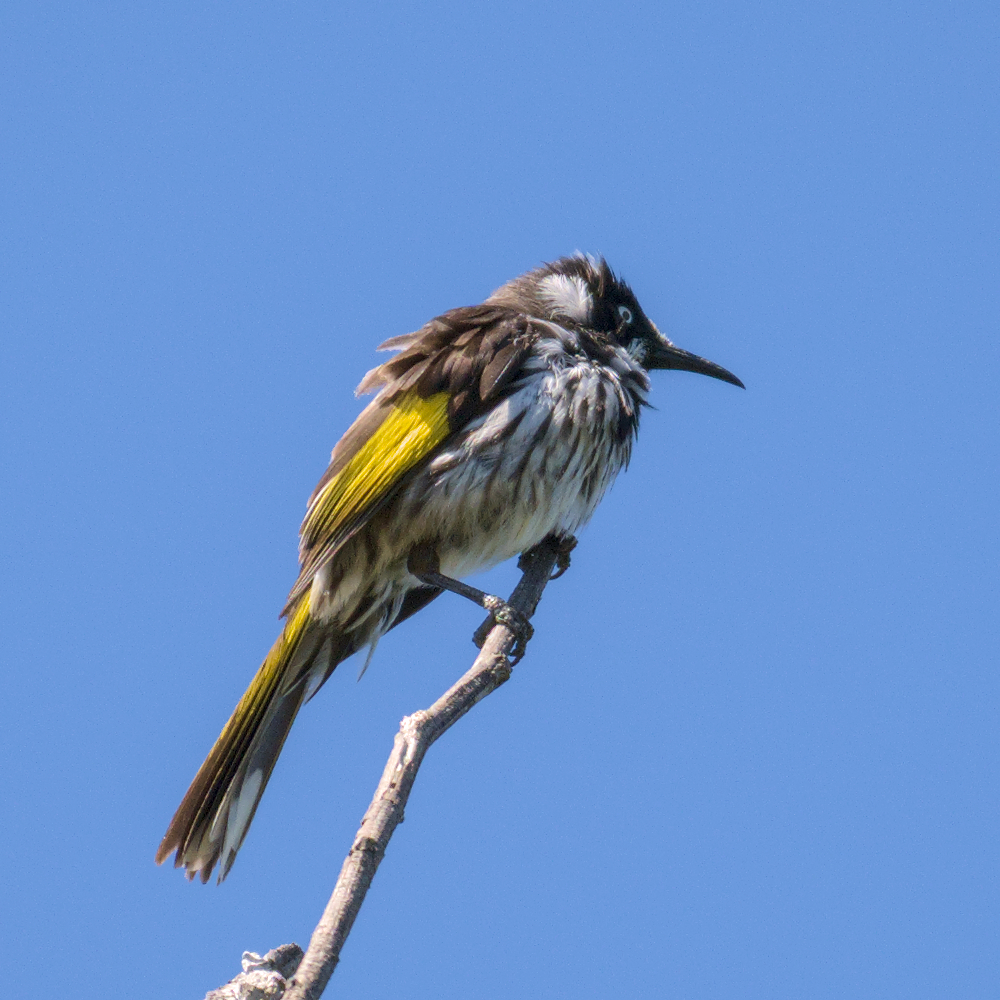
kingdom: Animalia
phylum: Chordata
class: Aves
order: Passeriformes
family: Meliphagidae
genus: Phylidonyris
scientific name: Phylidonyris novaehollandiae
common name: New holland honeyeater
